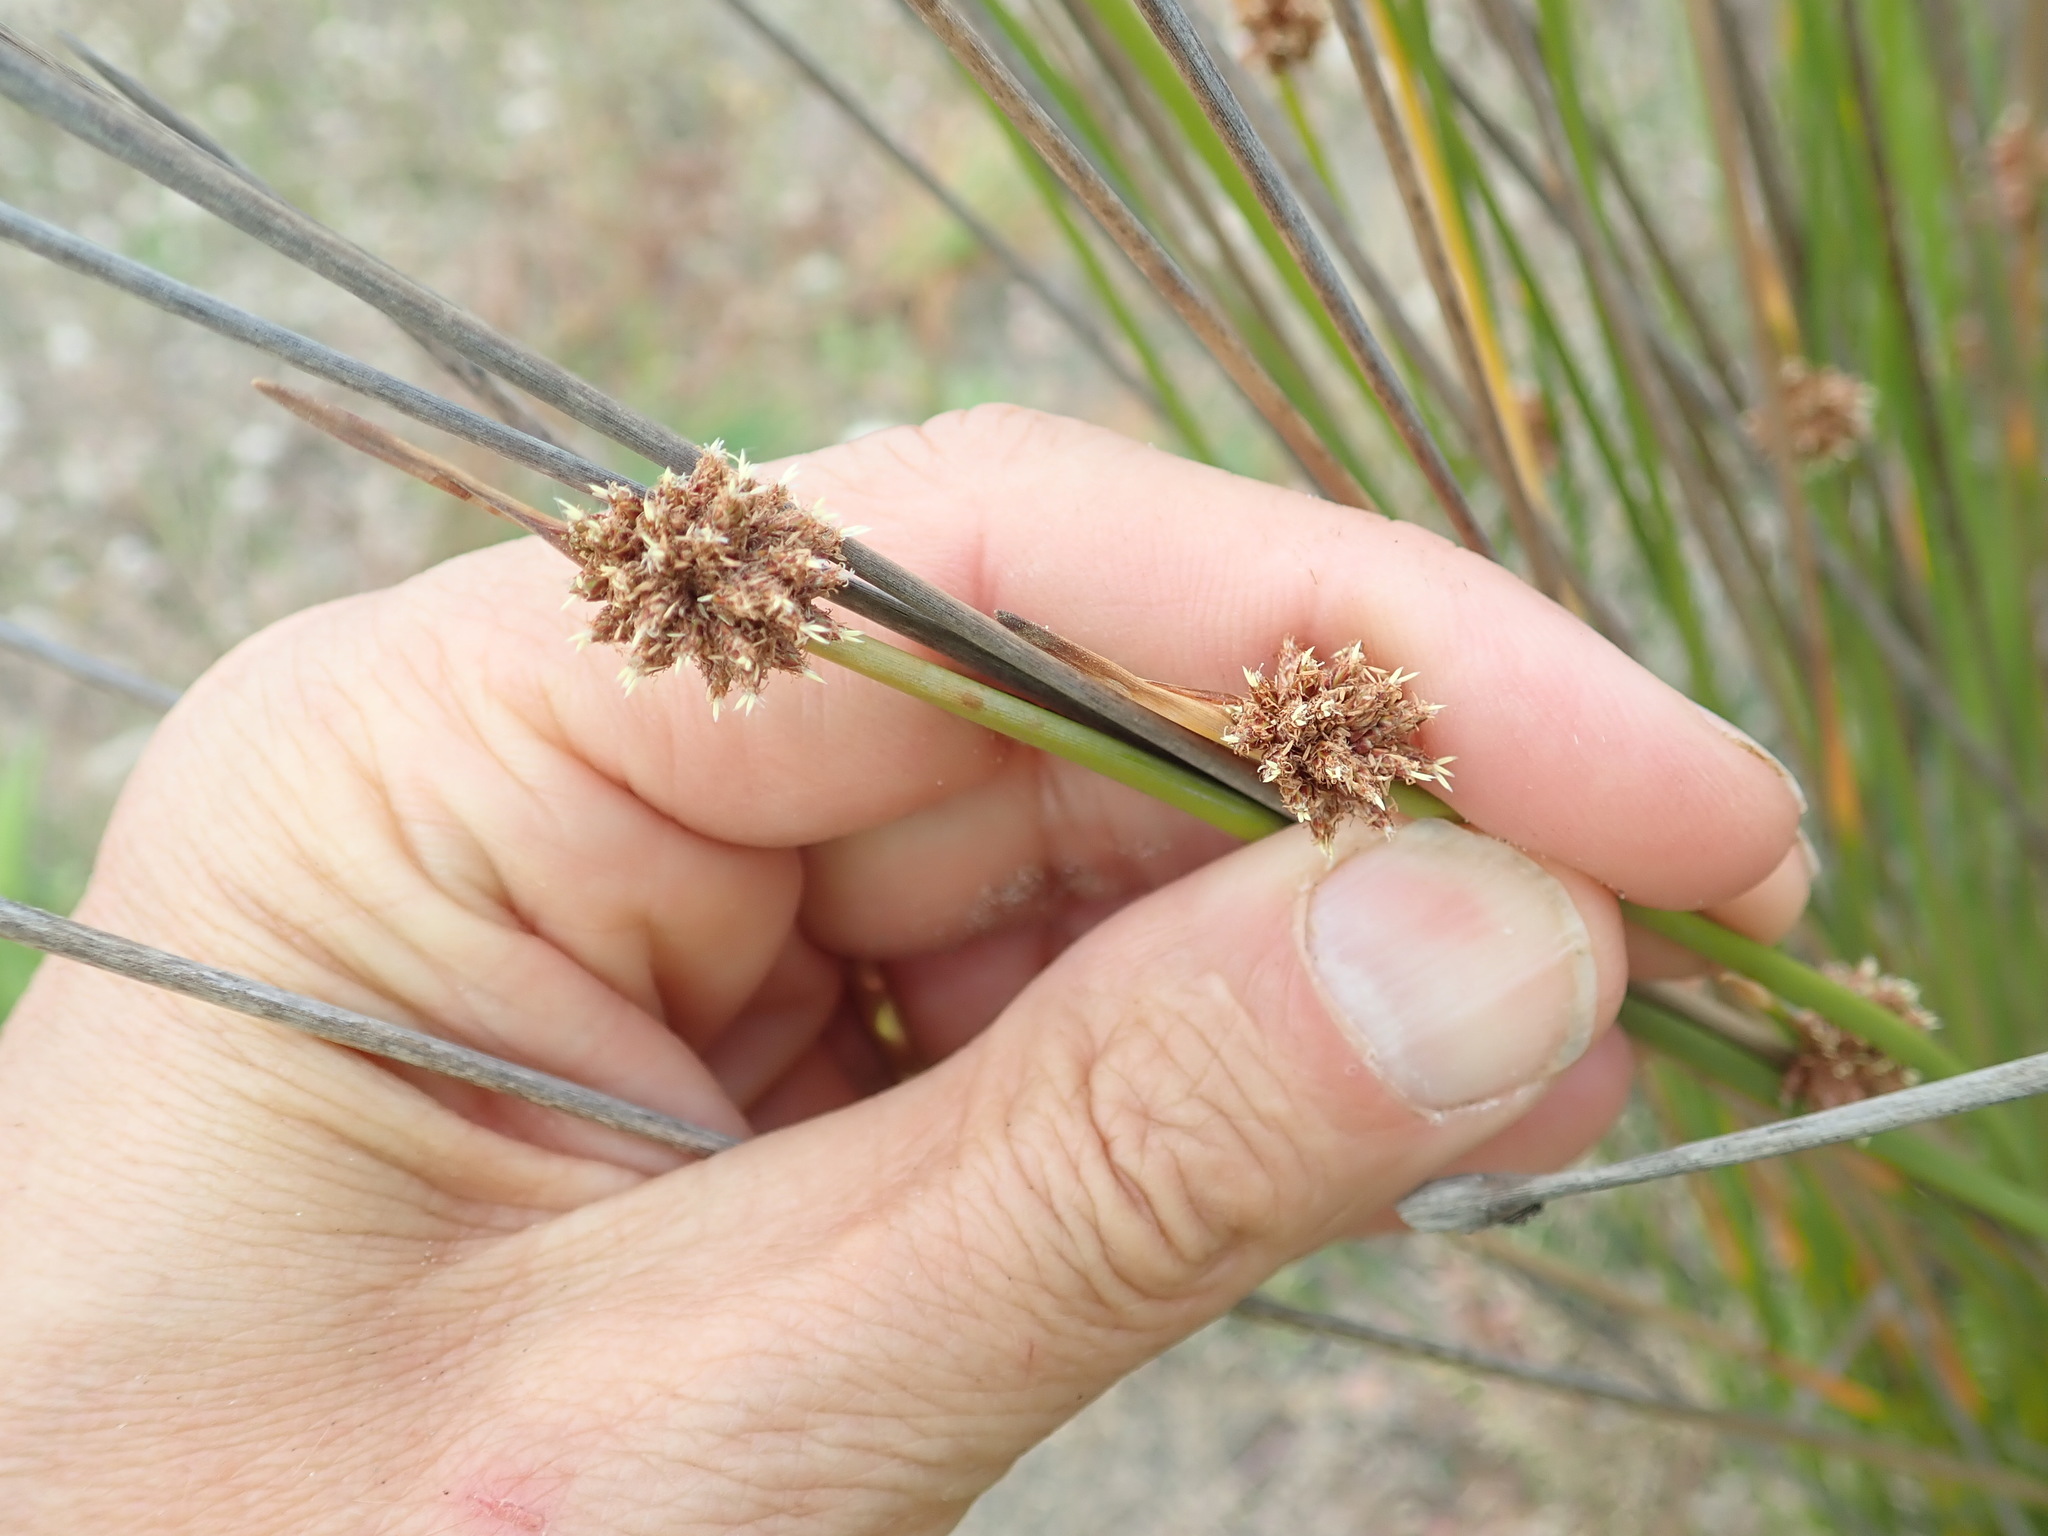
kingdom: Plantae
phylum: Tracheophyta
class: Liliopsida
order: Poales
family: Cyperaceae
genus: Ficinia
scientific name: Ficinia nodosa
